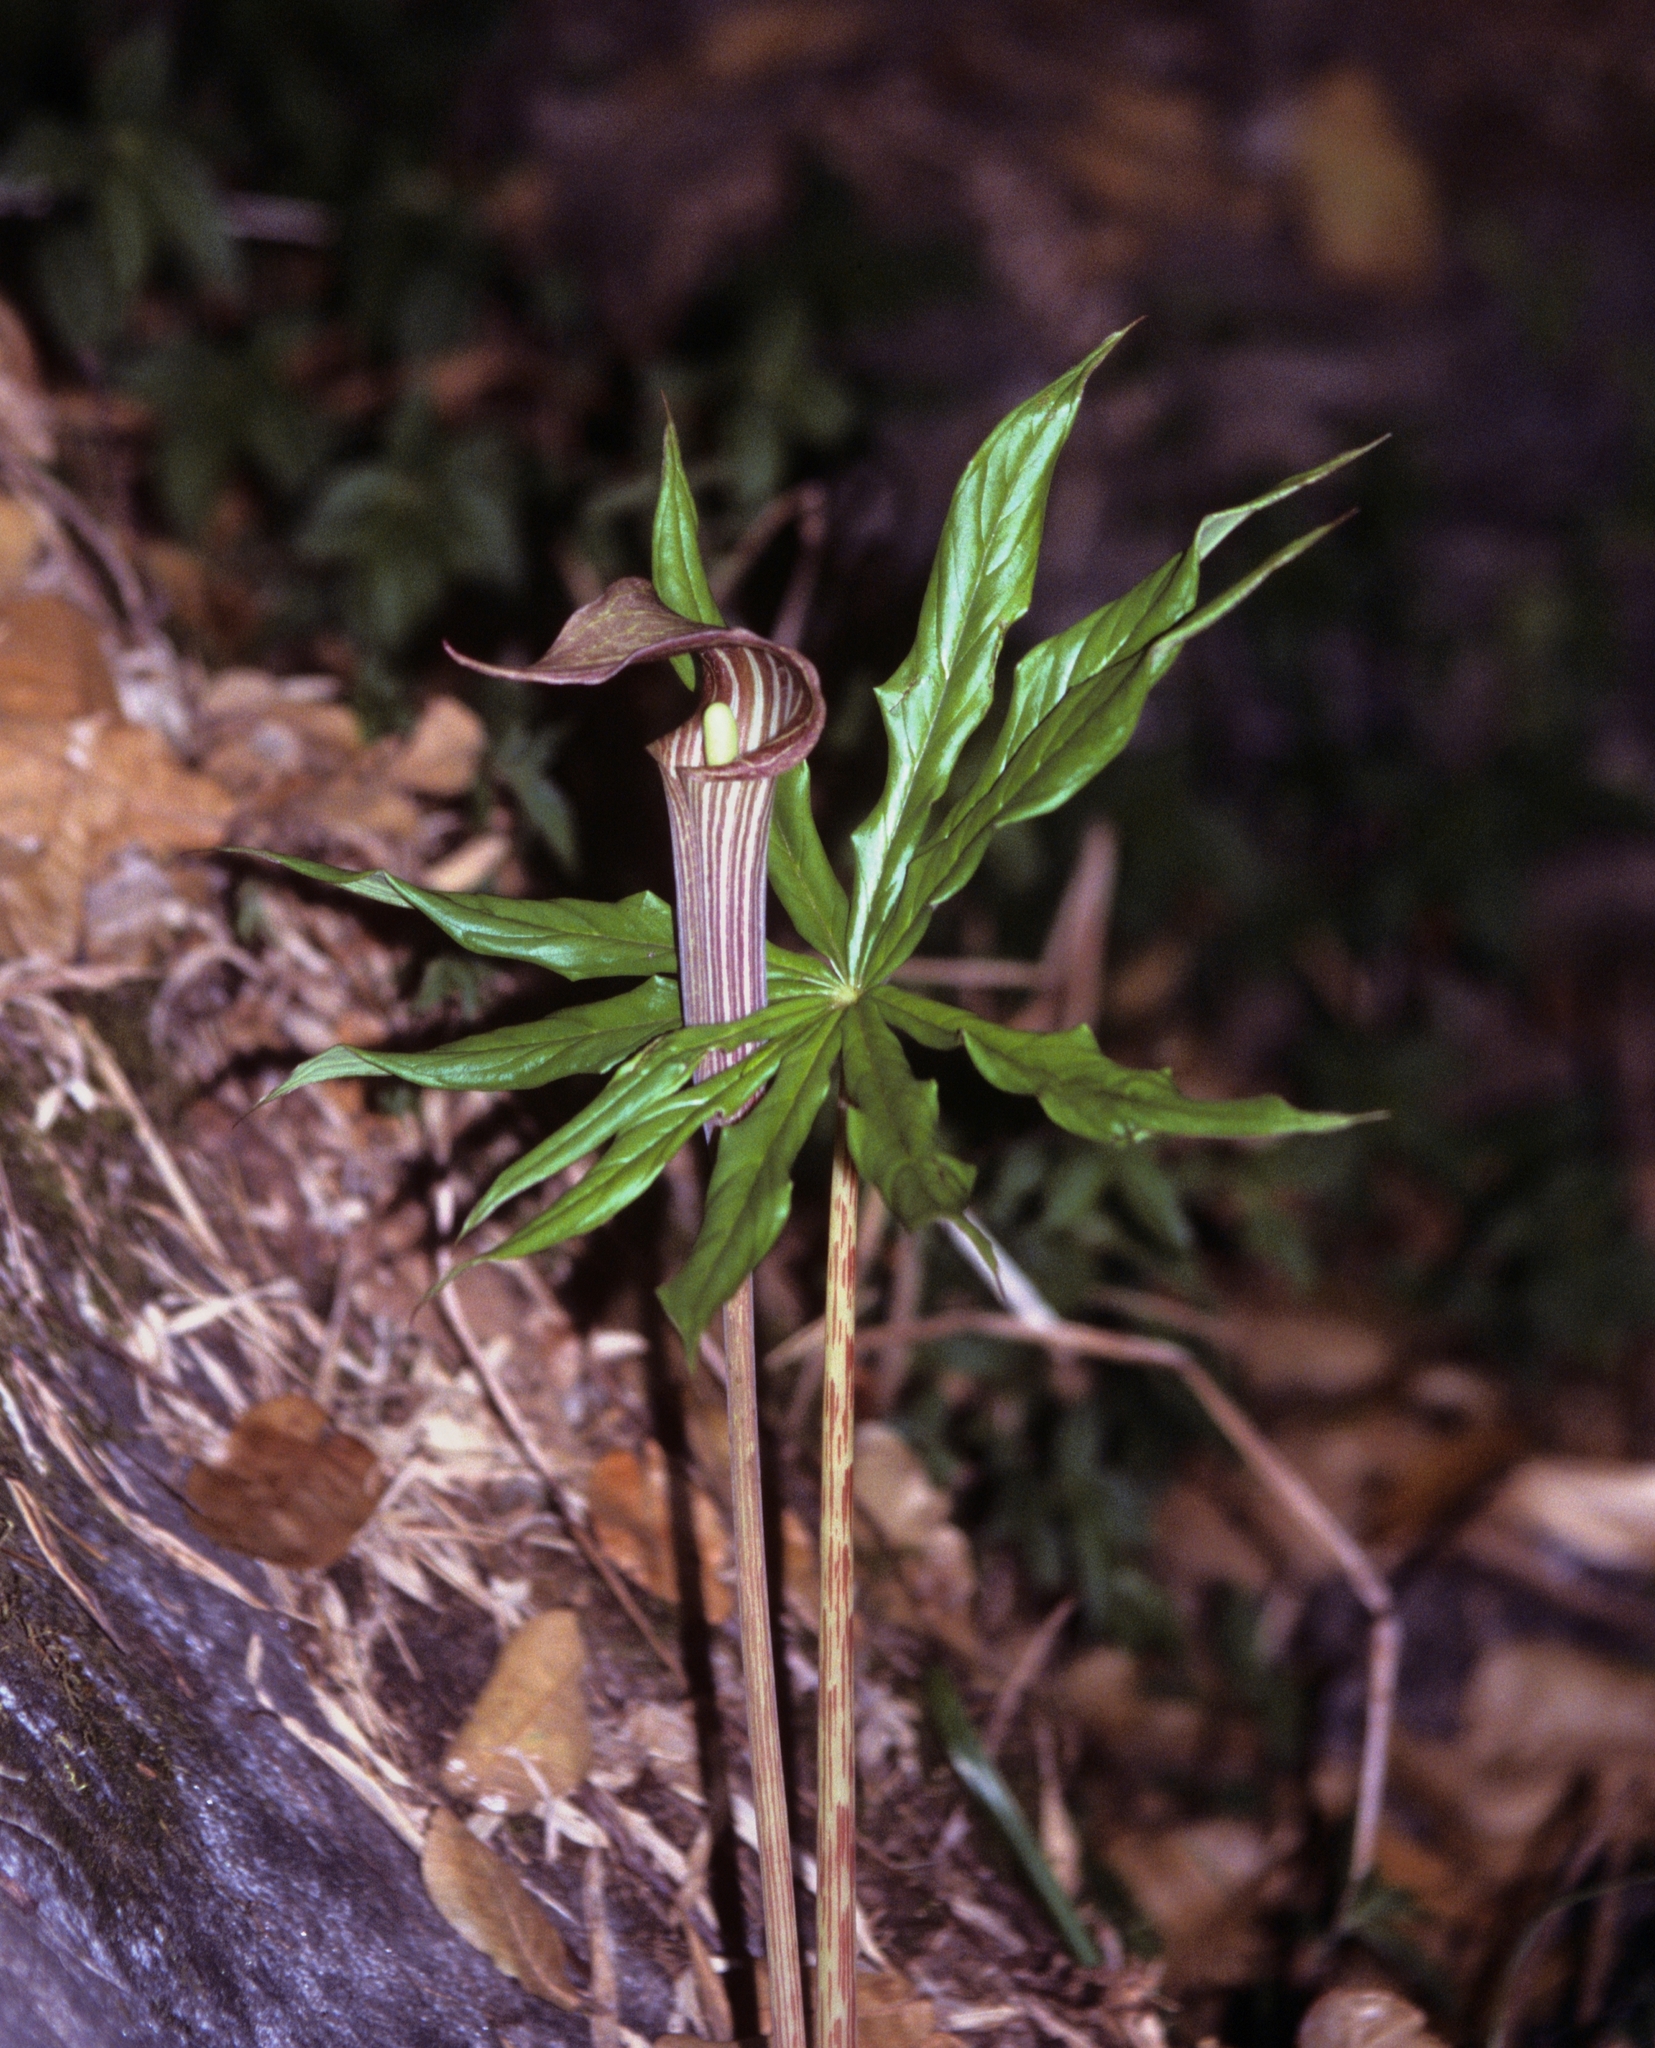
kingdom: Plantae
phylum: Tracheophyta
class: Liliopsida
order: Alismatales
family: Araceae
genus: Arisaema
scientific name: Arisaema erubescens
